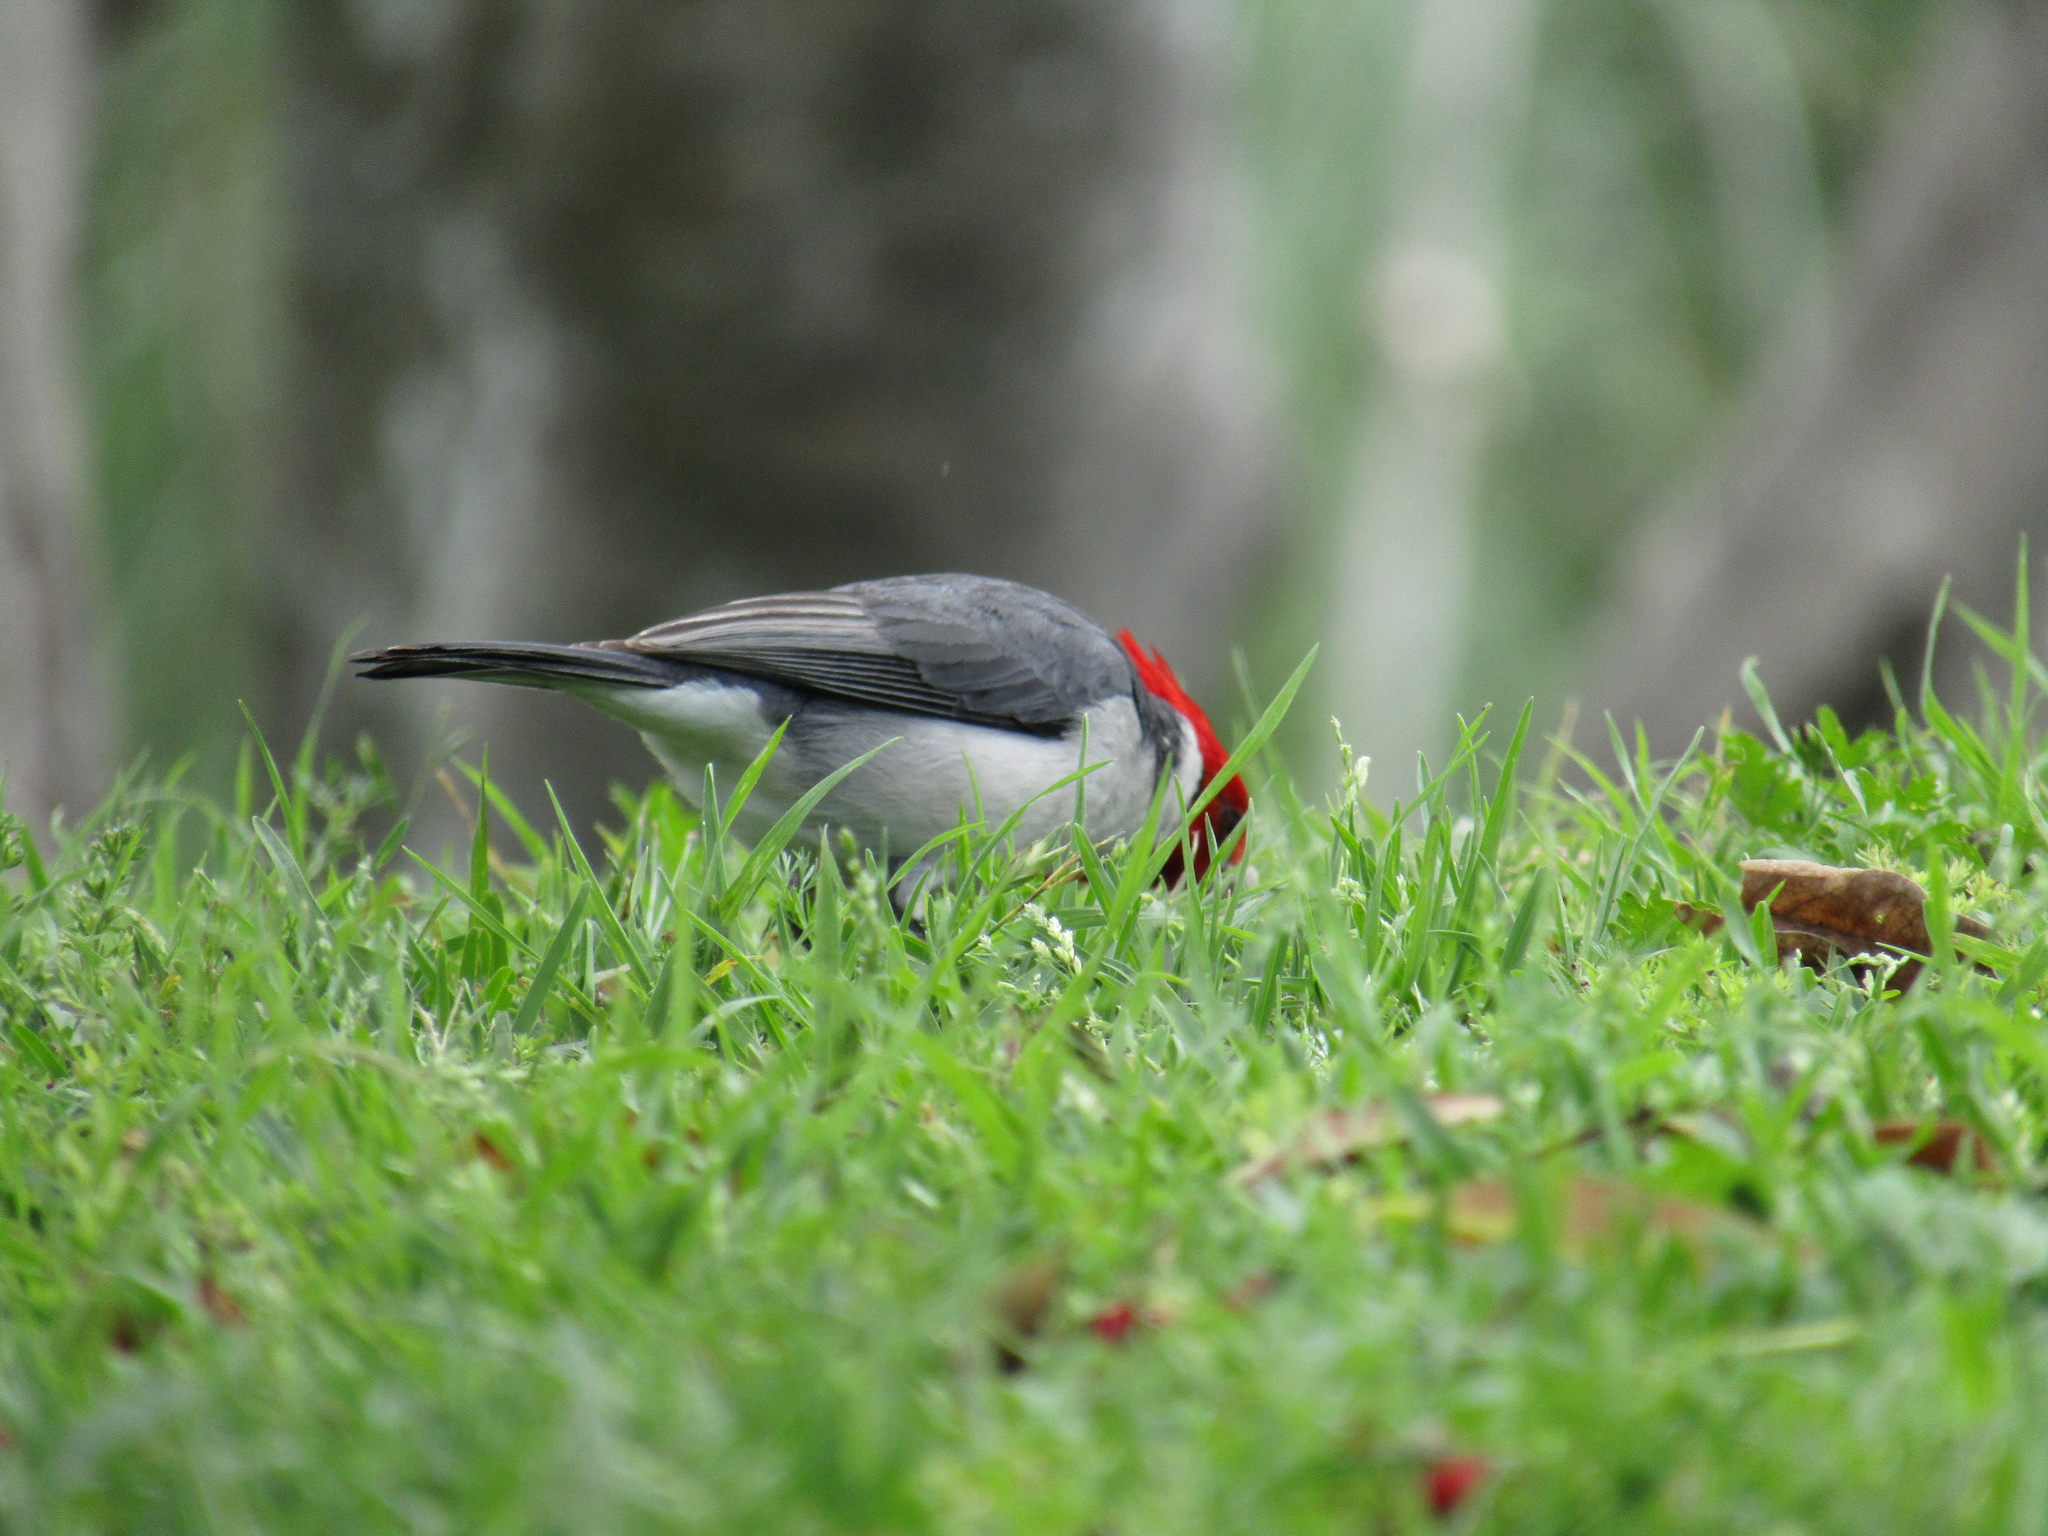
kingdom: Animalia
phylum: Chordata
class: Aves
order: Passeriformes
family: Thraupidae
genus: Paroaria
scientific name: Paroaria coronata
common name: Red-crested cardinal
